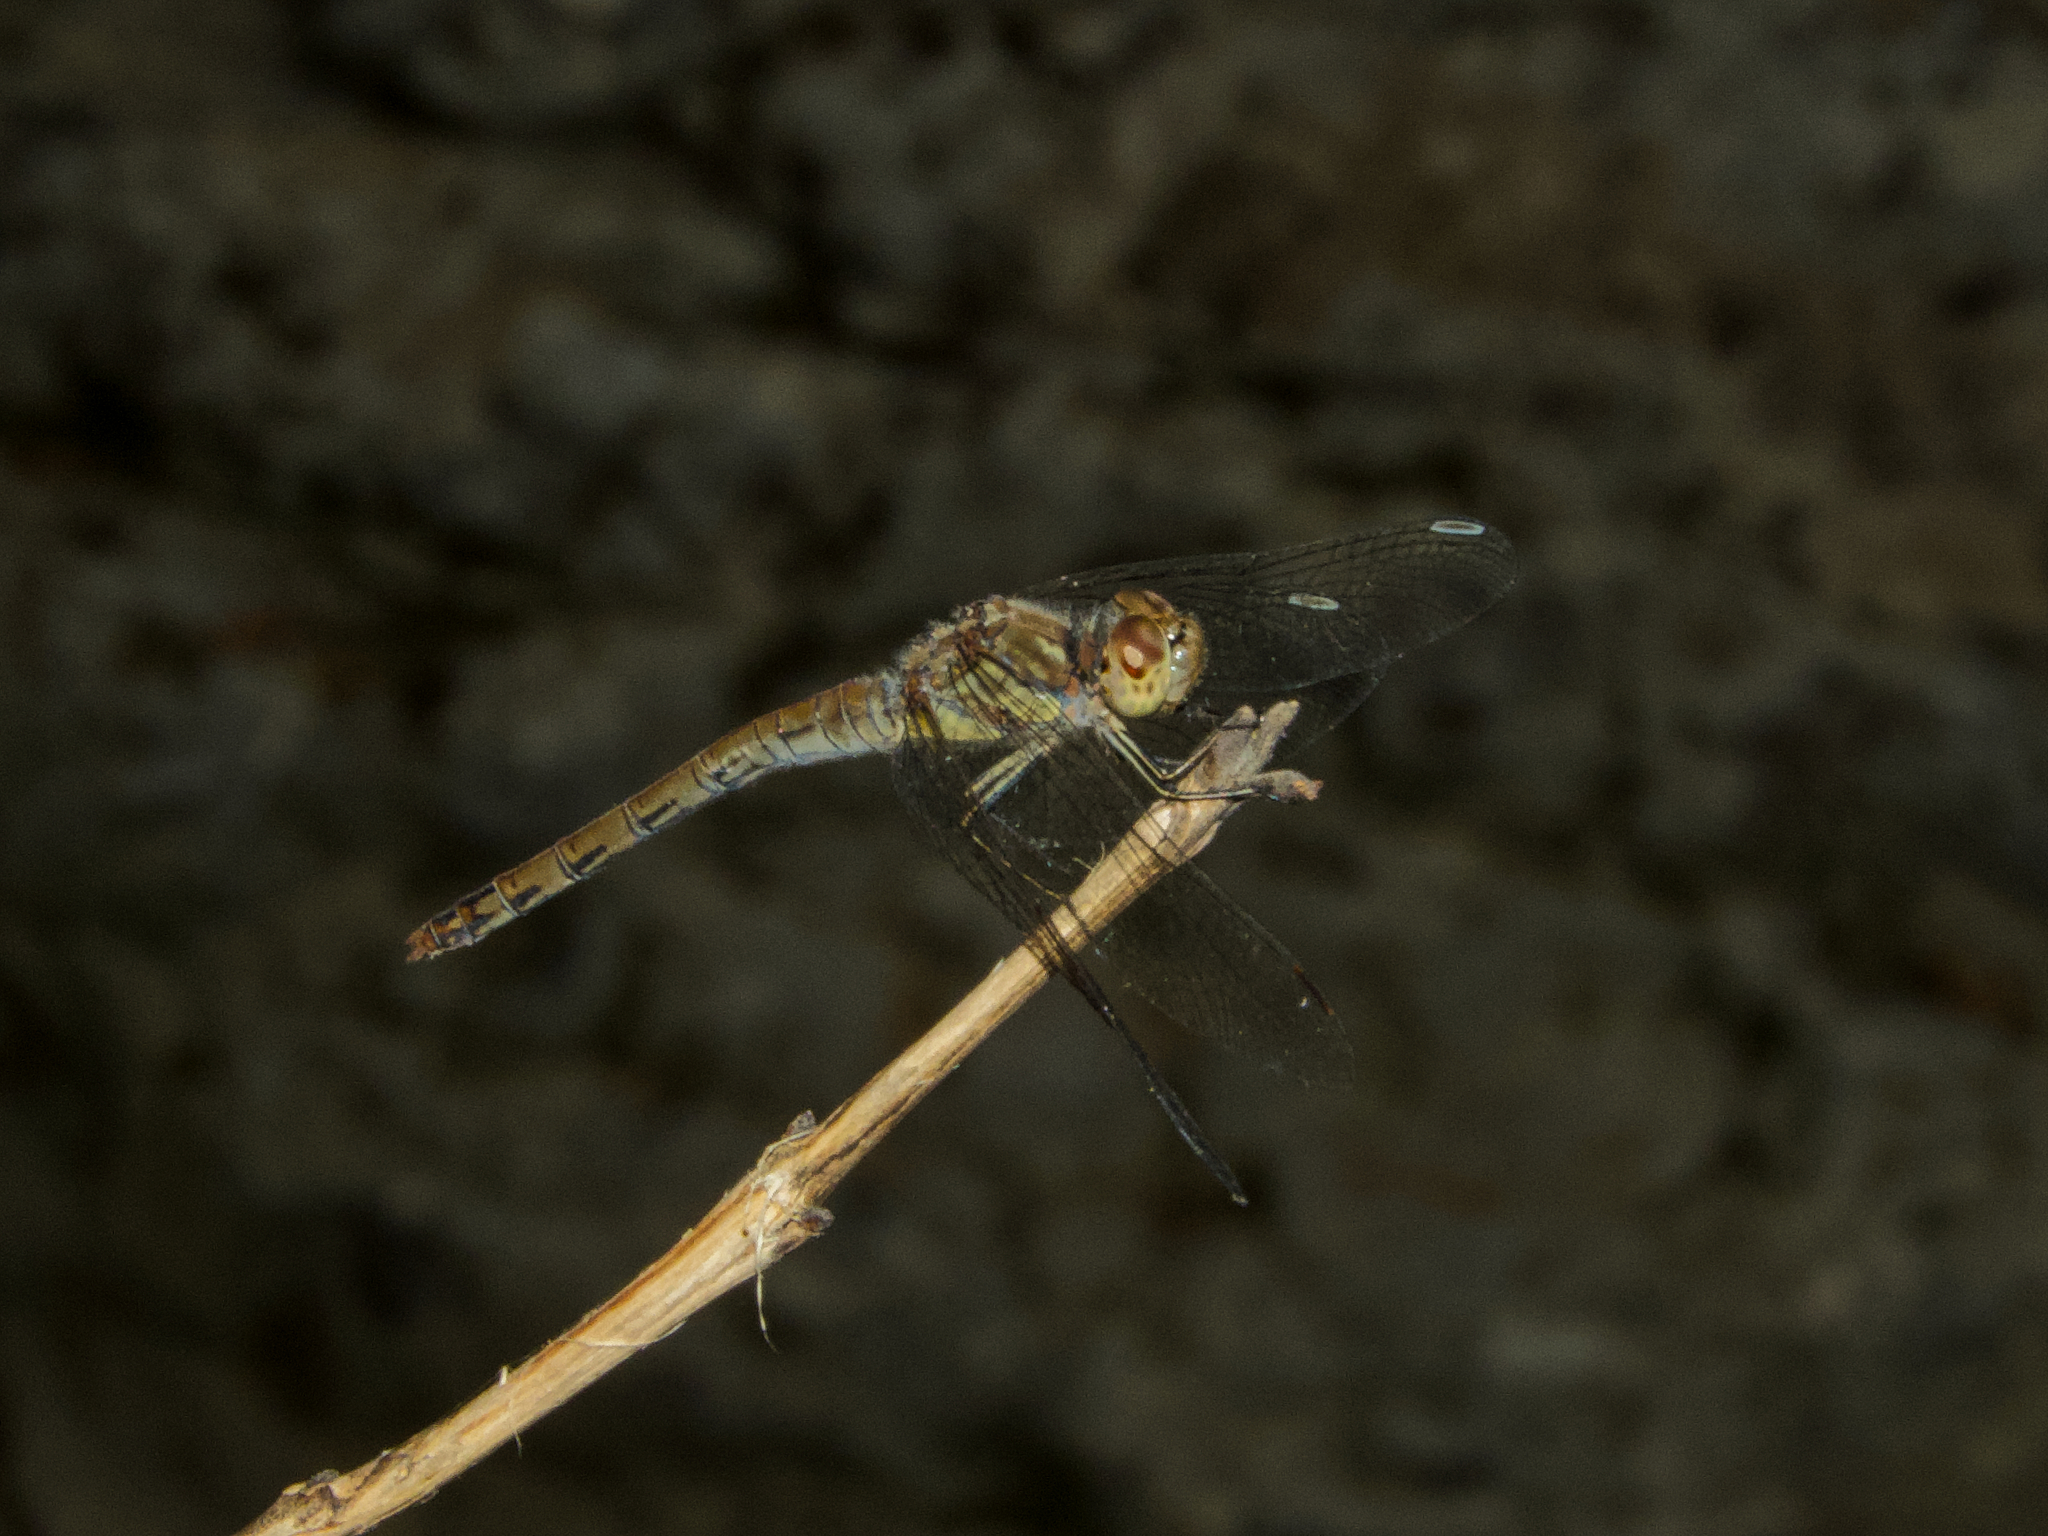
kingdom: Animalia
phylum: Arthropoda
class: Insecta
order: Odonata
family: Libellulidae
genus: Sympetrum
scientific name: Sympetrum striolatum
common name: Common darter
